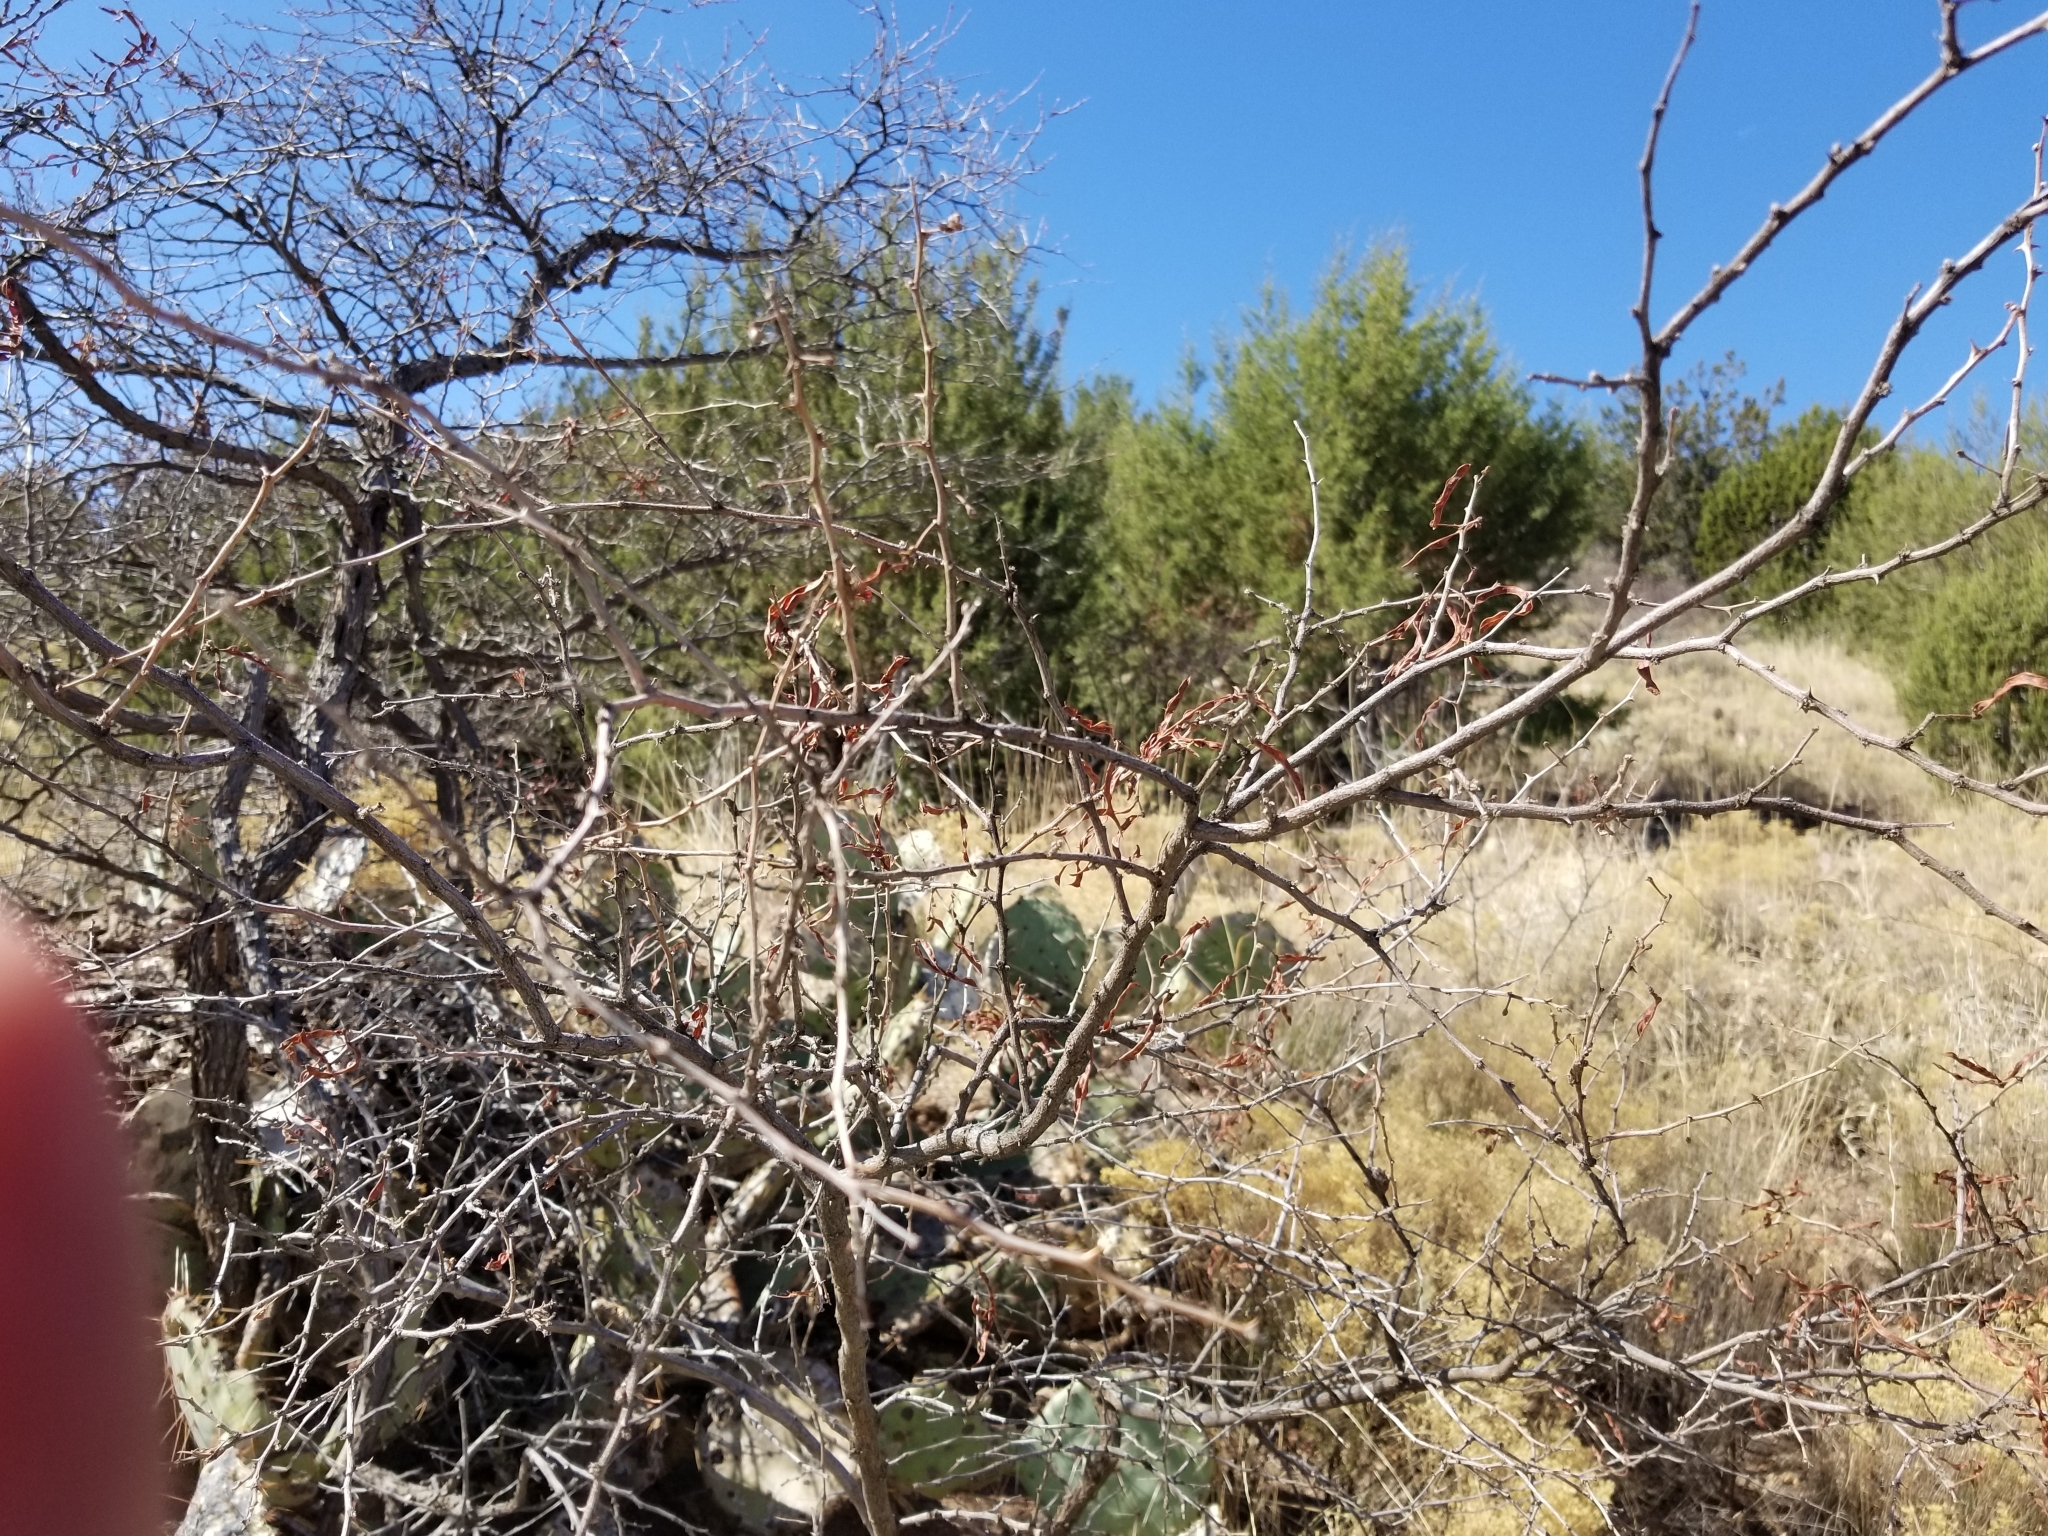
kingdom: Plantae
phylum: Tracheophyta
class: Magnoliopsida
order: Fabales
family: Fabaceae
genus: Mimosa
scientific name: Mimosa biuncifera
